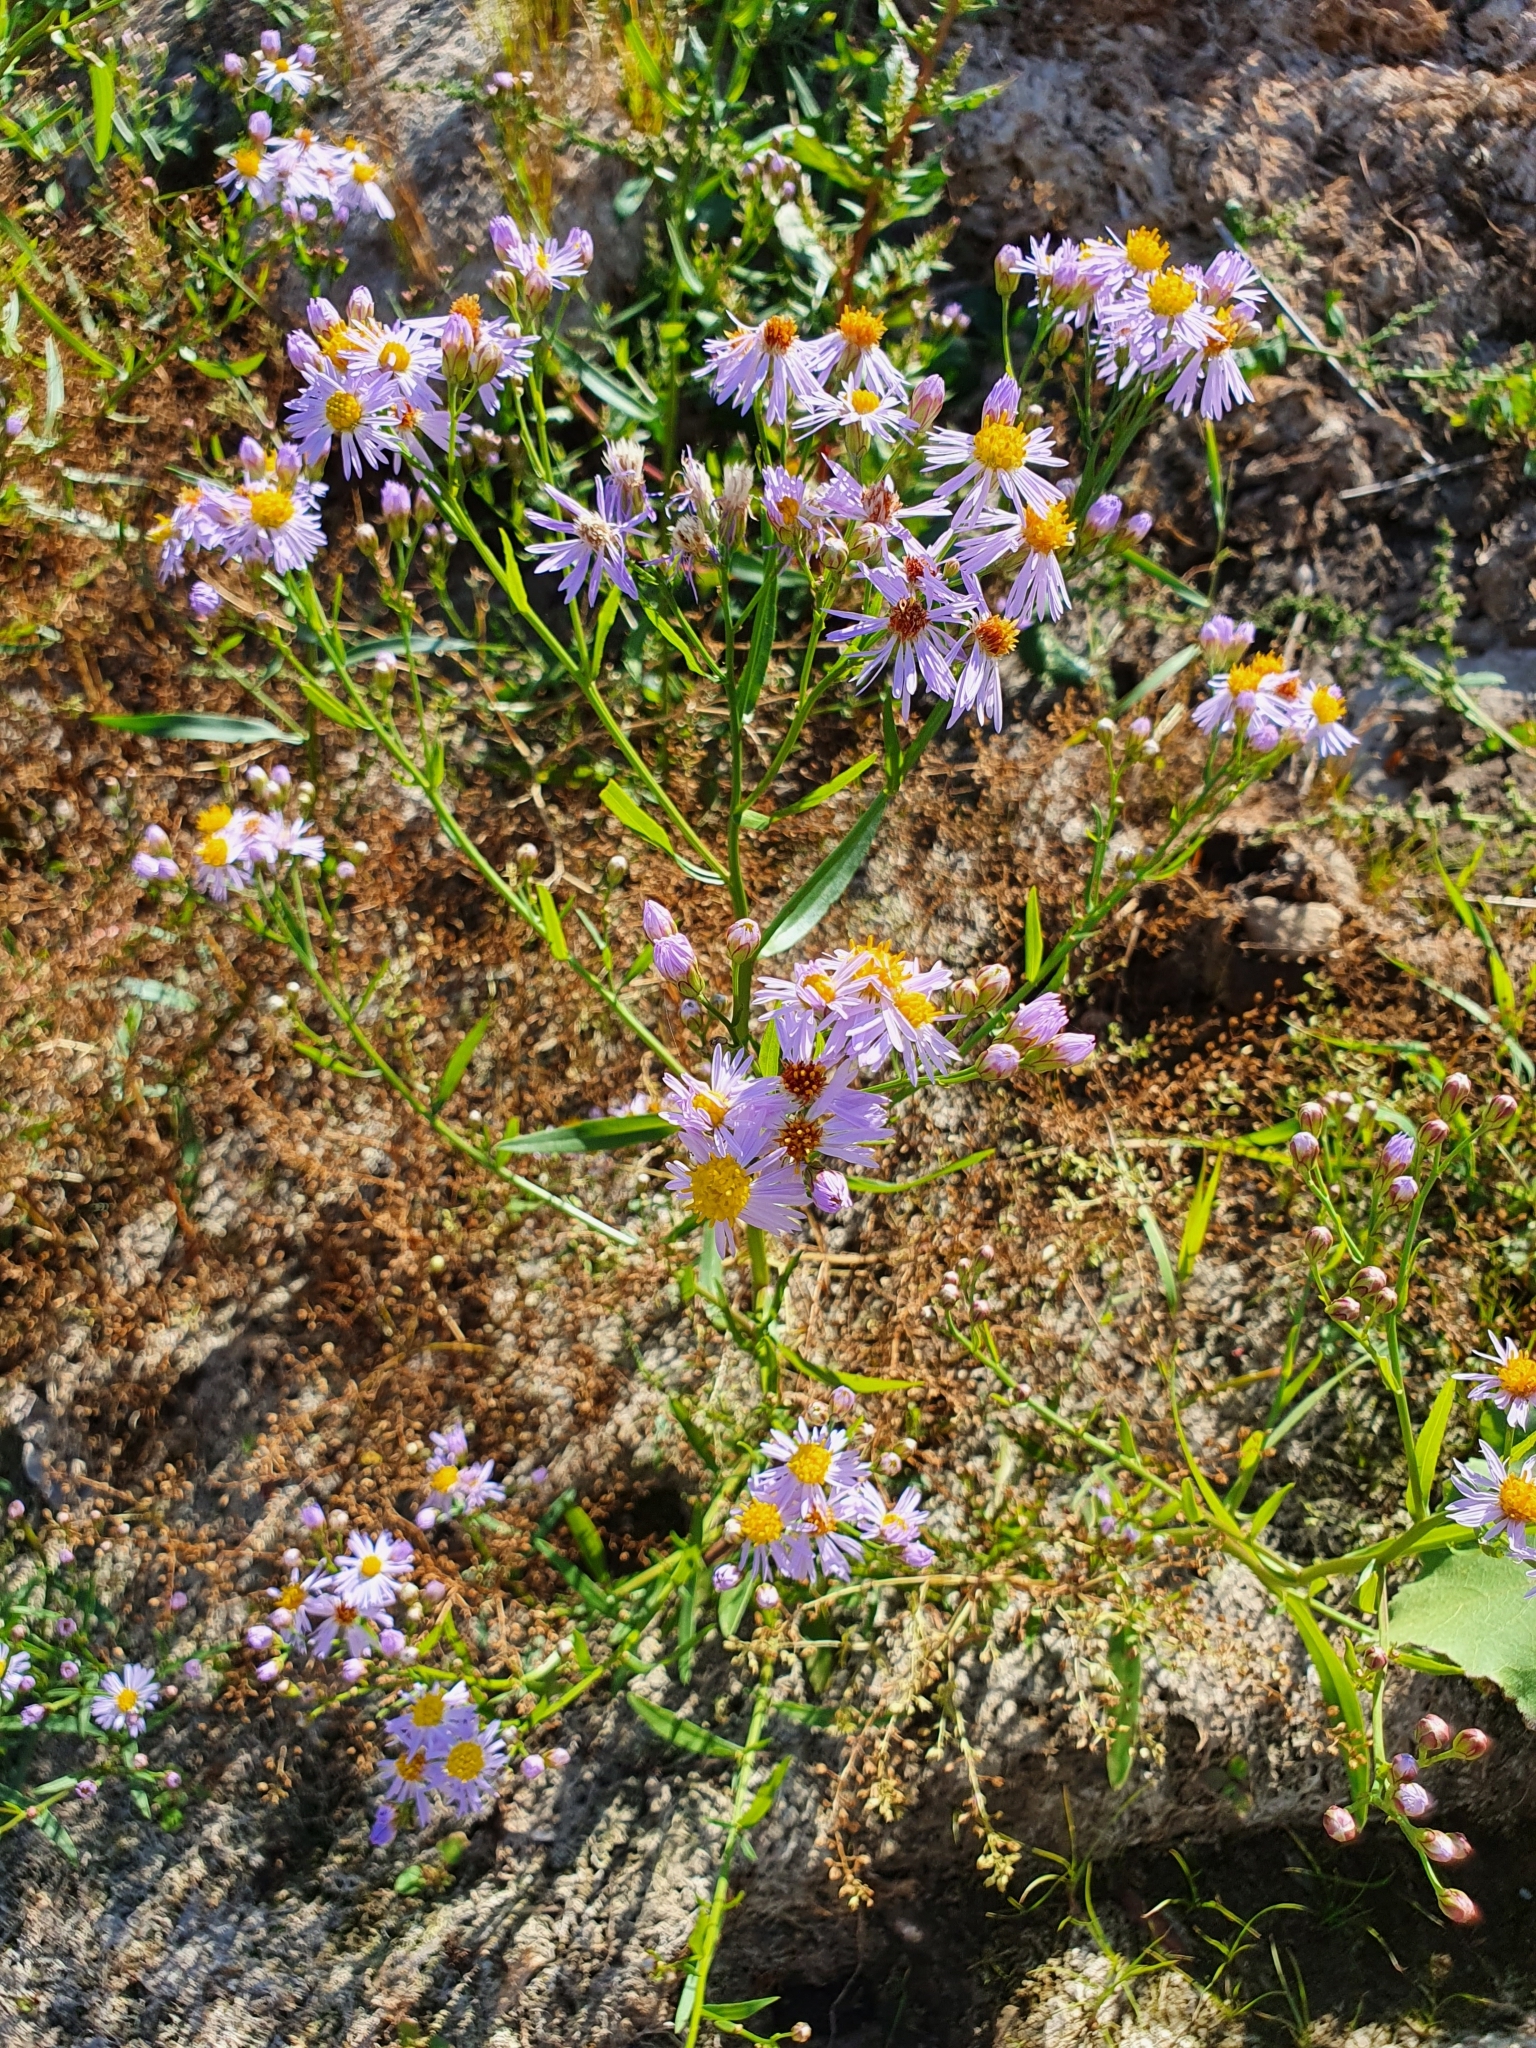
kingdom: Plantae
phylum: Tracheophyta
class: Magnoliopsida
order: Asterales
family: Asteraceae
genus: Tripolium
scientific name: Tripolium pannonicum
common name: Sea aster
